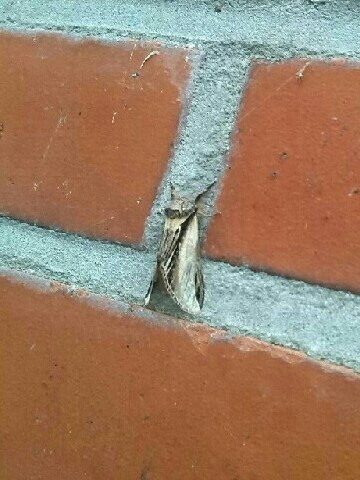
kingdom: Animalia
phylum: Arthropoda
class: Insecta
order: Lepidoptera
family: Notodontidae
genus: Pheosia
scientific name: Pheosia tremula
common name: Swallow prominent
